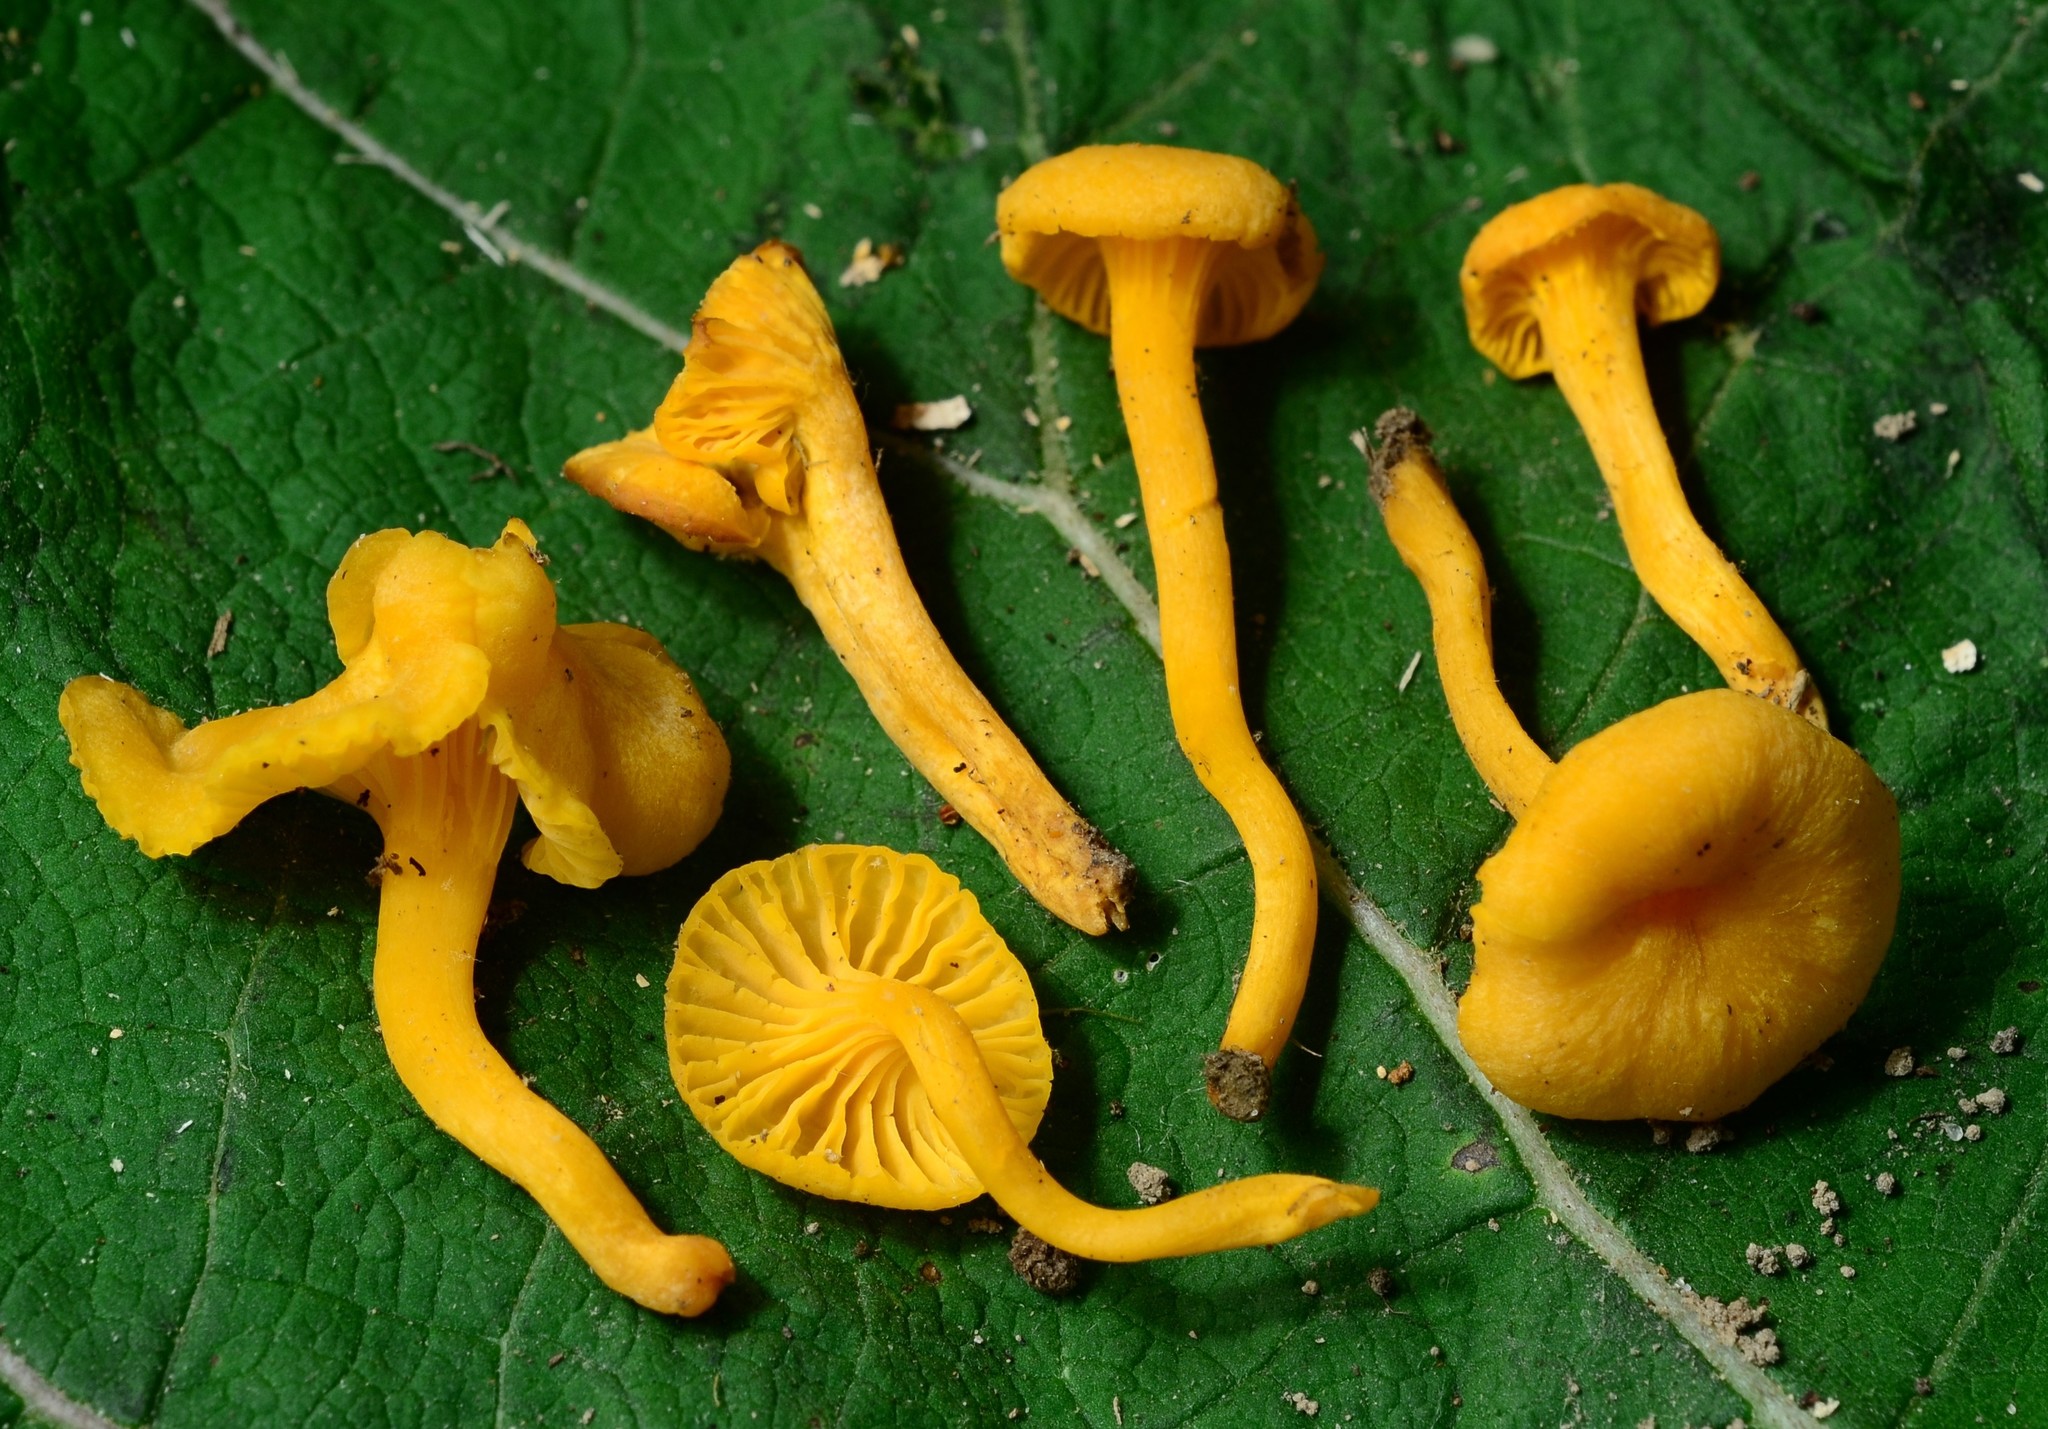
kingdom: Fungi
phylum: Basidiomycota
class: Agaricomycetes
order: Cantharellales
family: Hydnaceae
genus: Cantharellus
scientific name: Cantharellus minor
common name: Small chanterelle
